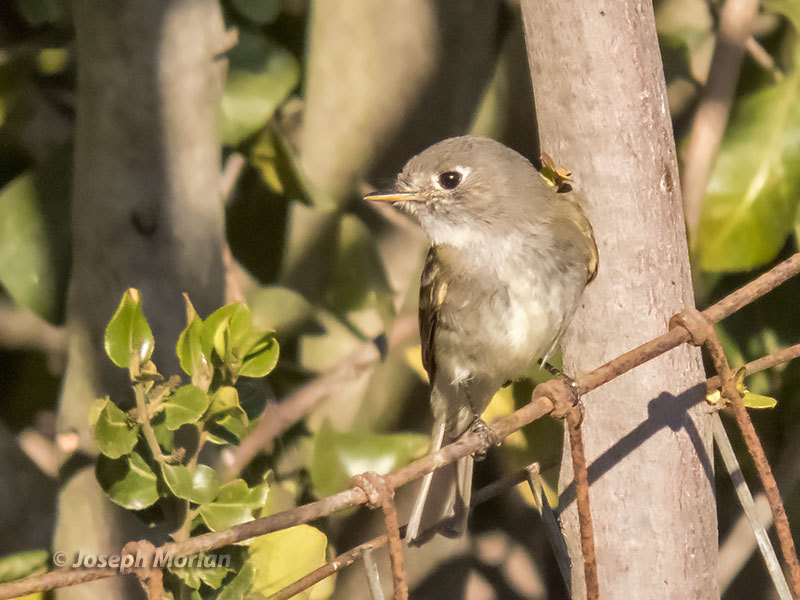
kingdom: Animalia
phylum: Chordata
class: Aves
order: Passeriformes
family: Tyrannidae
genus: Empidonax
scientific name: Empidonax oberholseri
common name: Dusky flycatcher
